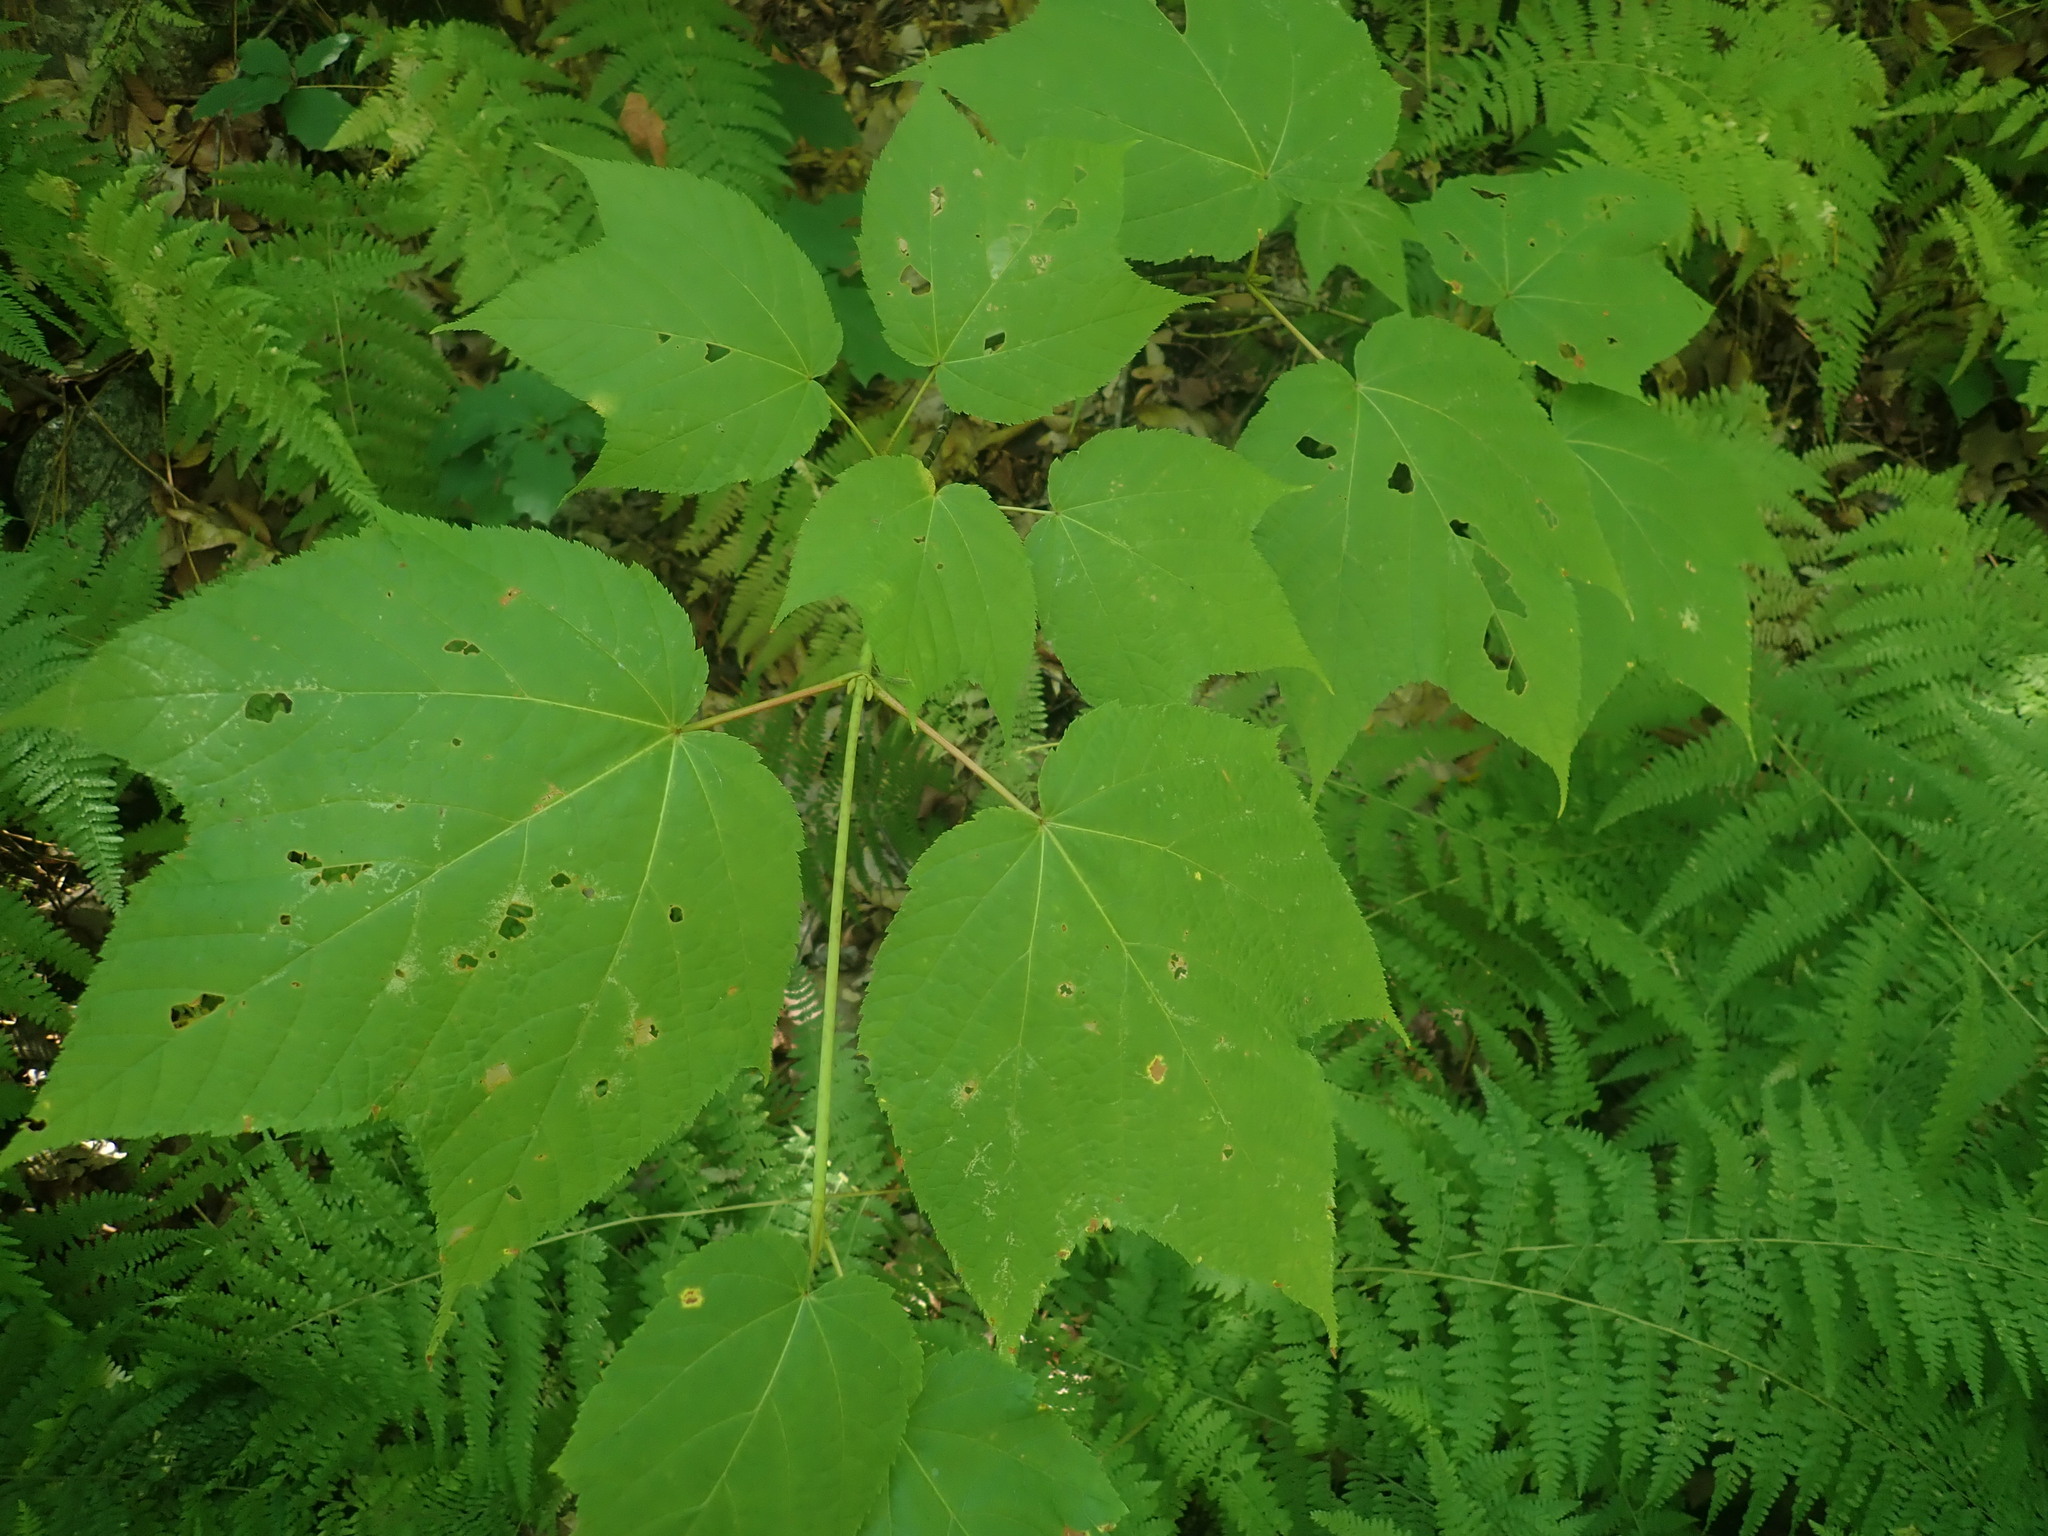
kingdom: Plantae
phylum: Tracheophyta
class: Magnoliopsida
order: Sapindales
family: Sapindaceae
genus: Acer
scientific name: Acer pensylvanicum
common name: Moosewood
